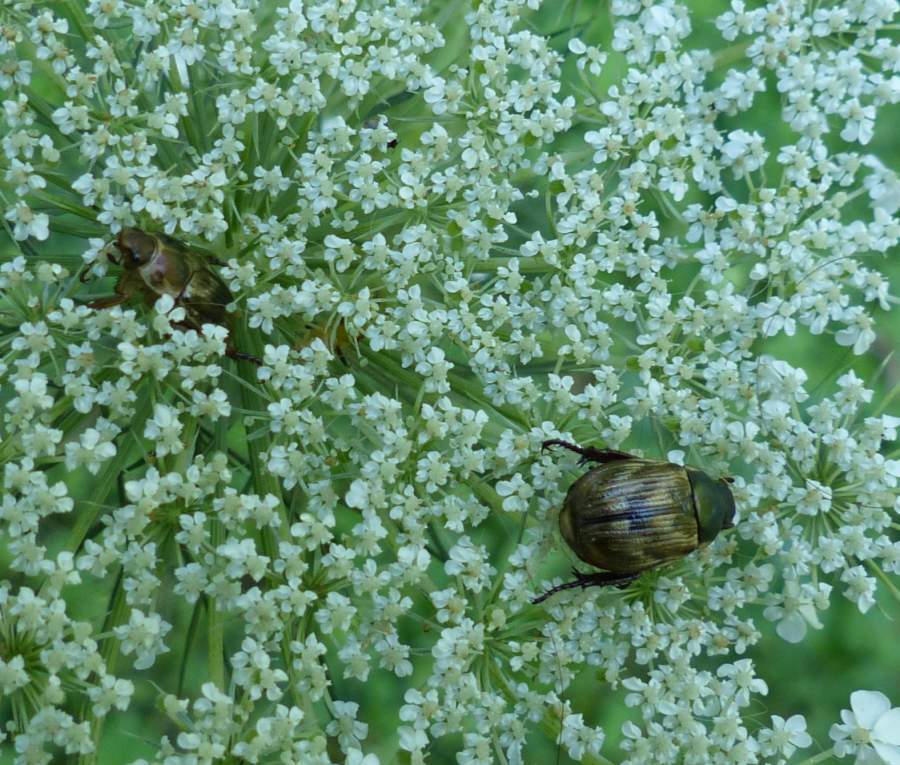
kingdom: Animalia
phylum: Arthropoda
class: Insecta
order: Coleoptera
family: Scarabaeidae
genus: Exomala
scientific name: Exomala orientalis
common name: Oriental beetle
